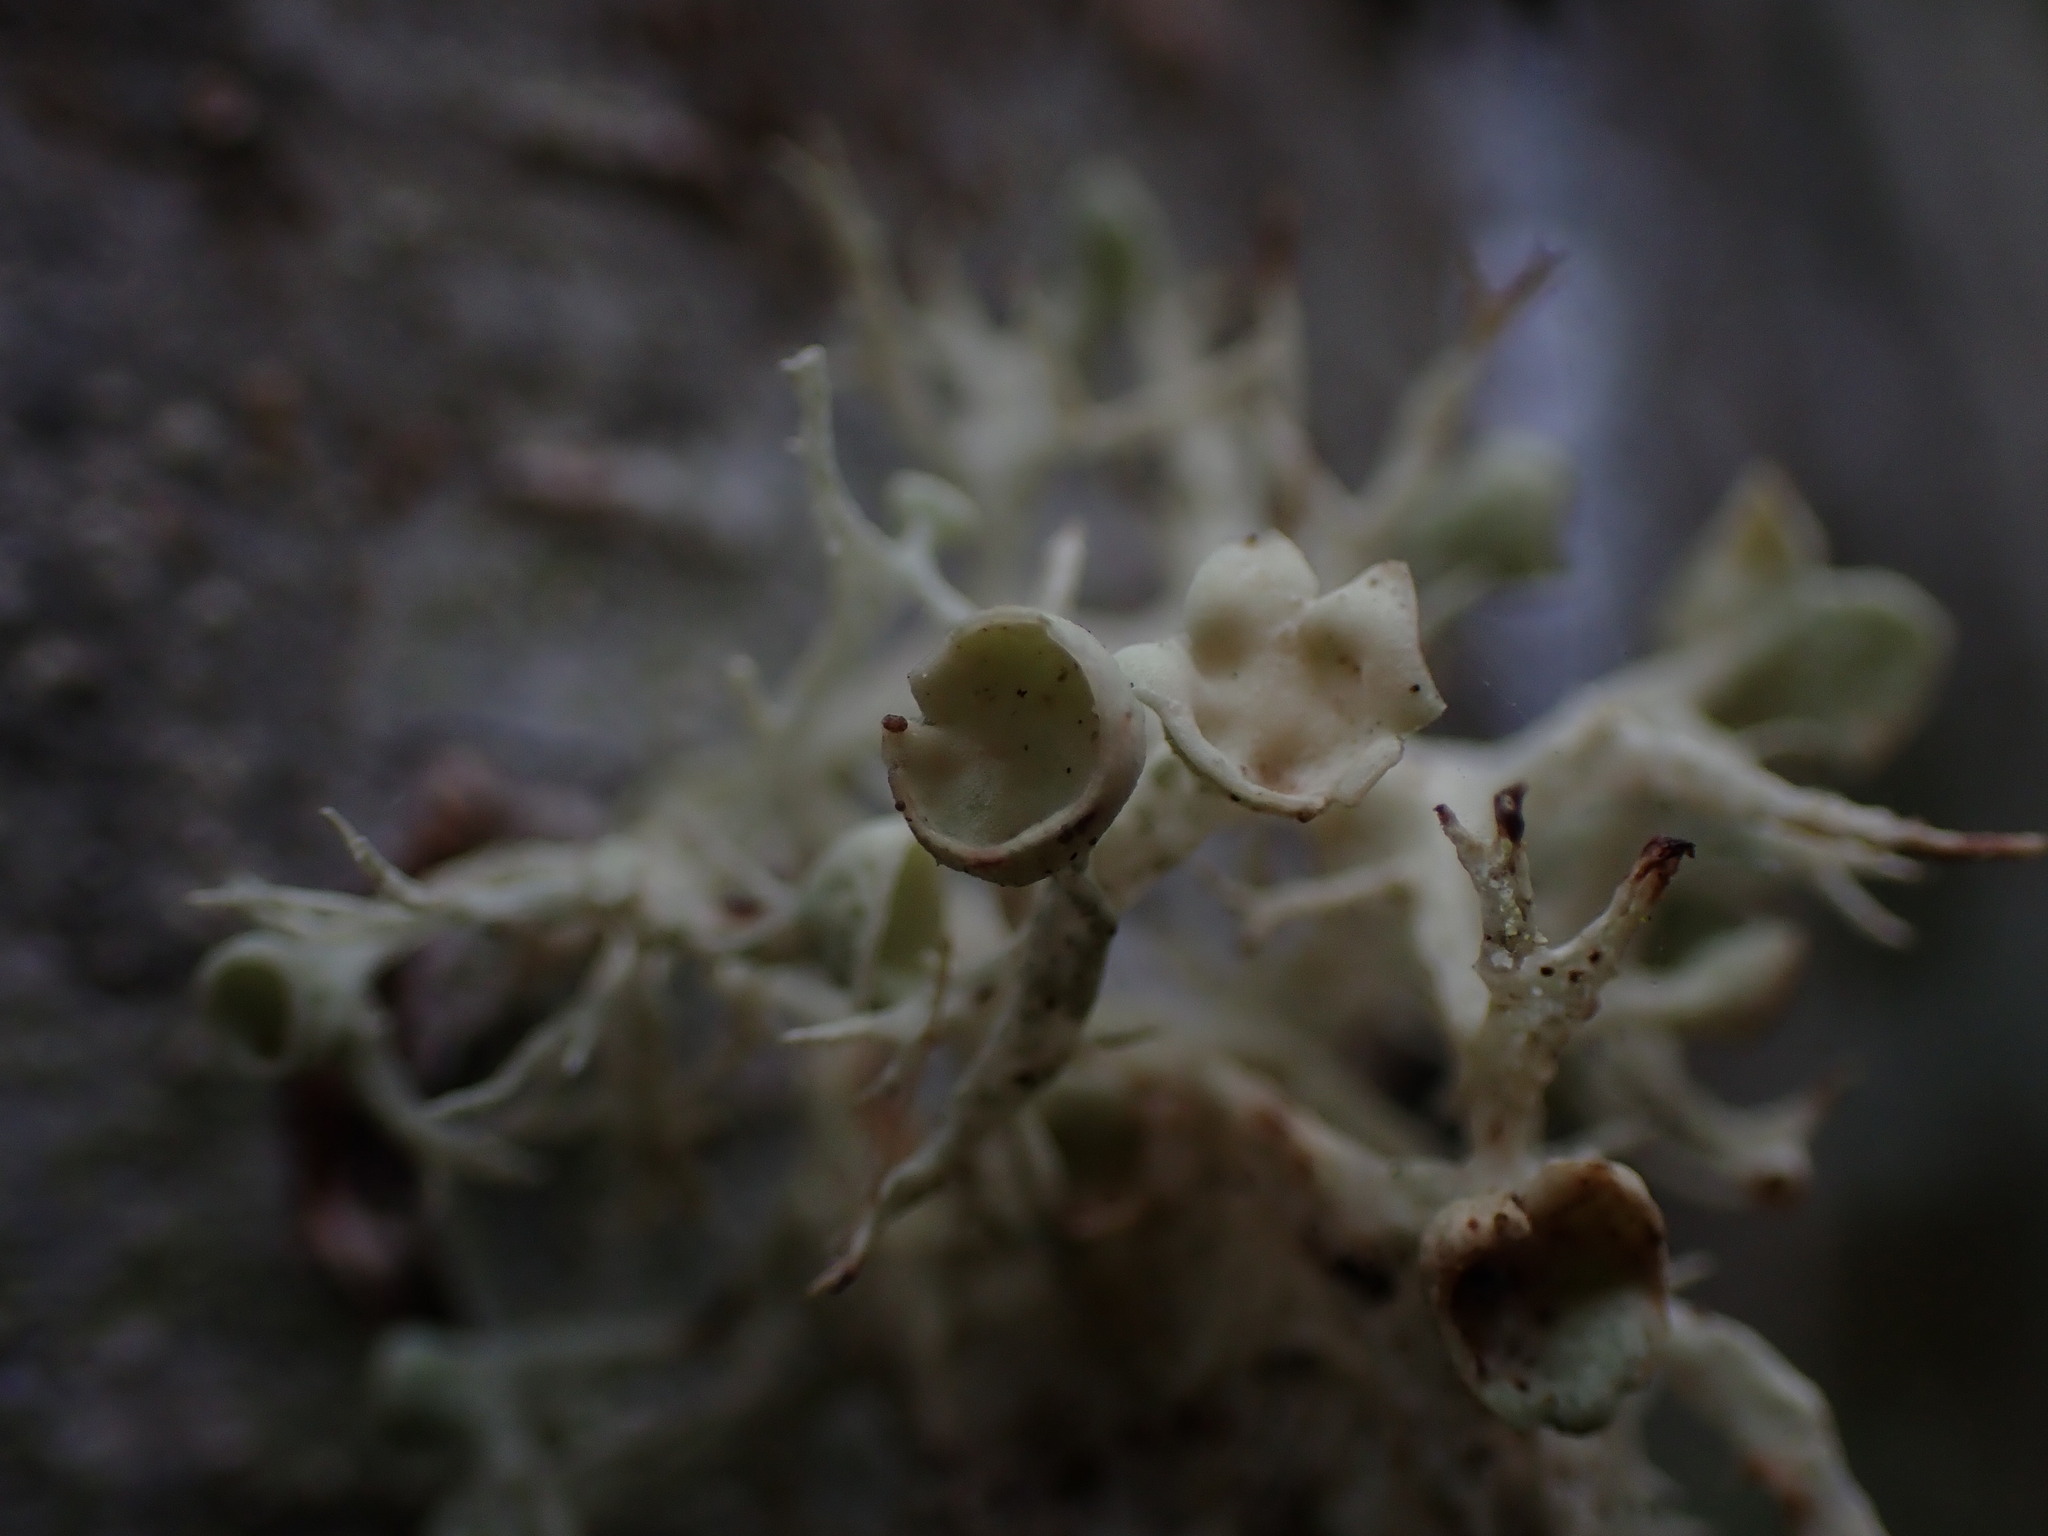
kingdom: Fungi
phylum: Ascomycota
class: Lecanoromycetes
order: Lecanorales
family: Ramalinaceae
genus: Ramalina
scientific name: Ramalina dilacerata
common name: Punctured bushy lichen
